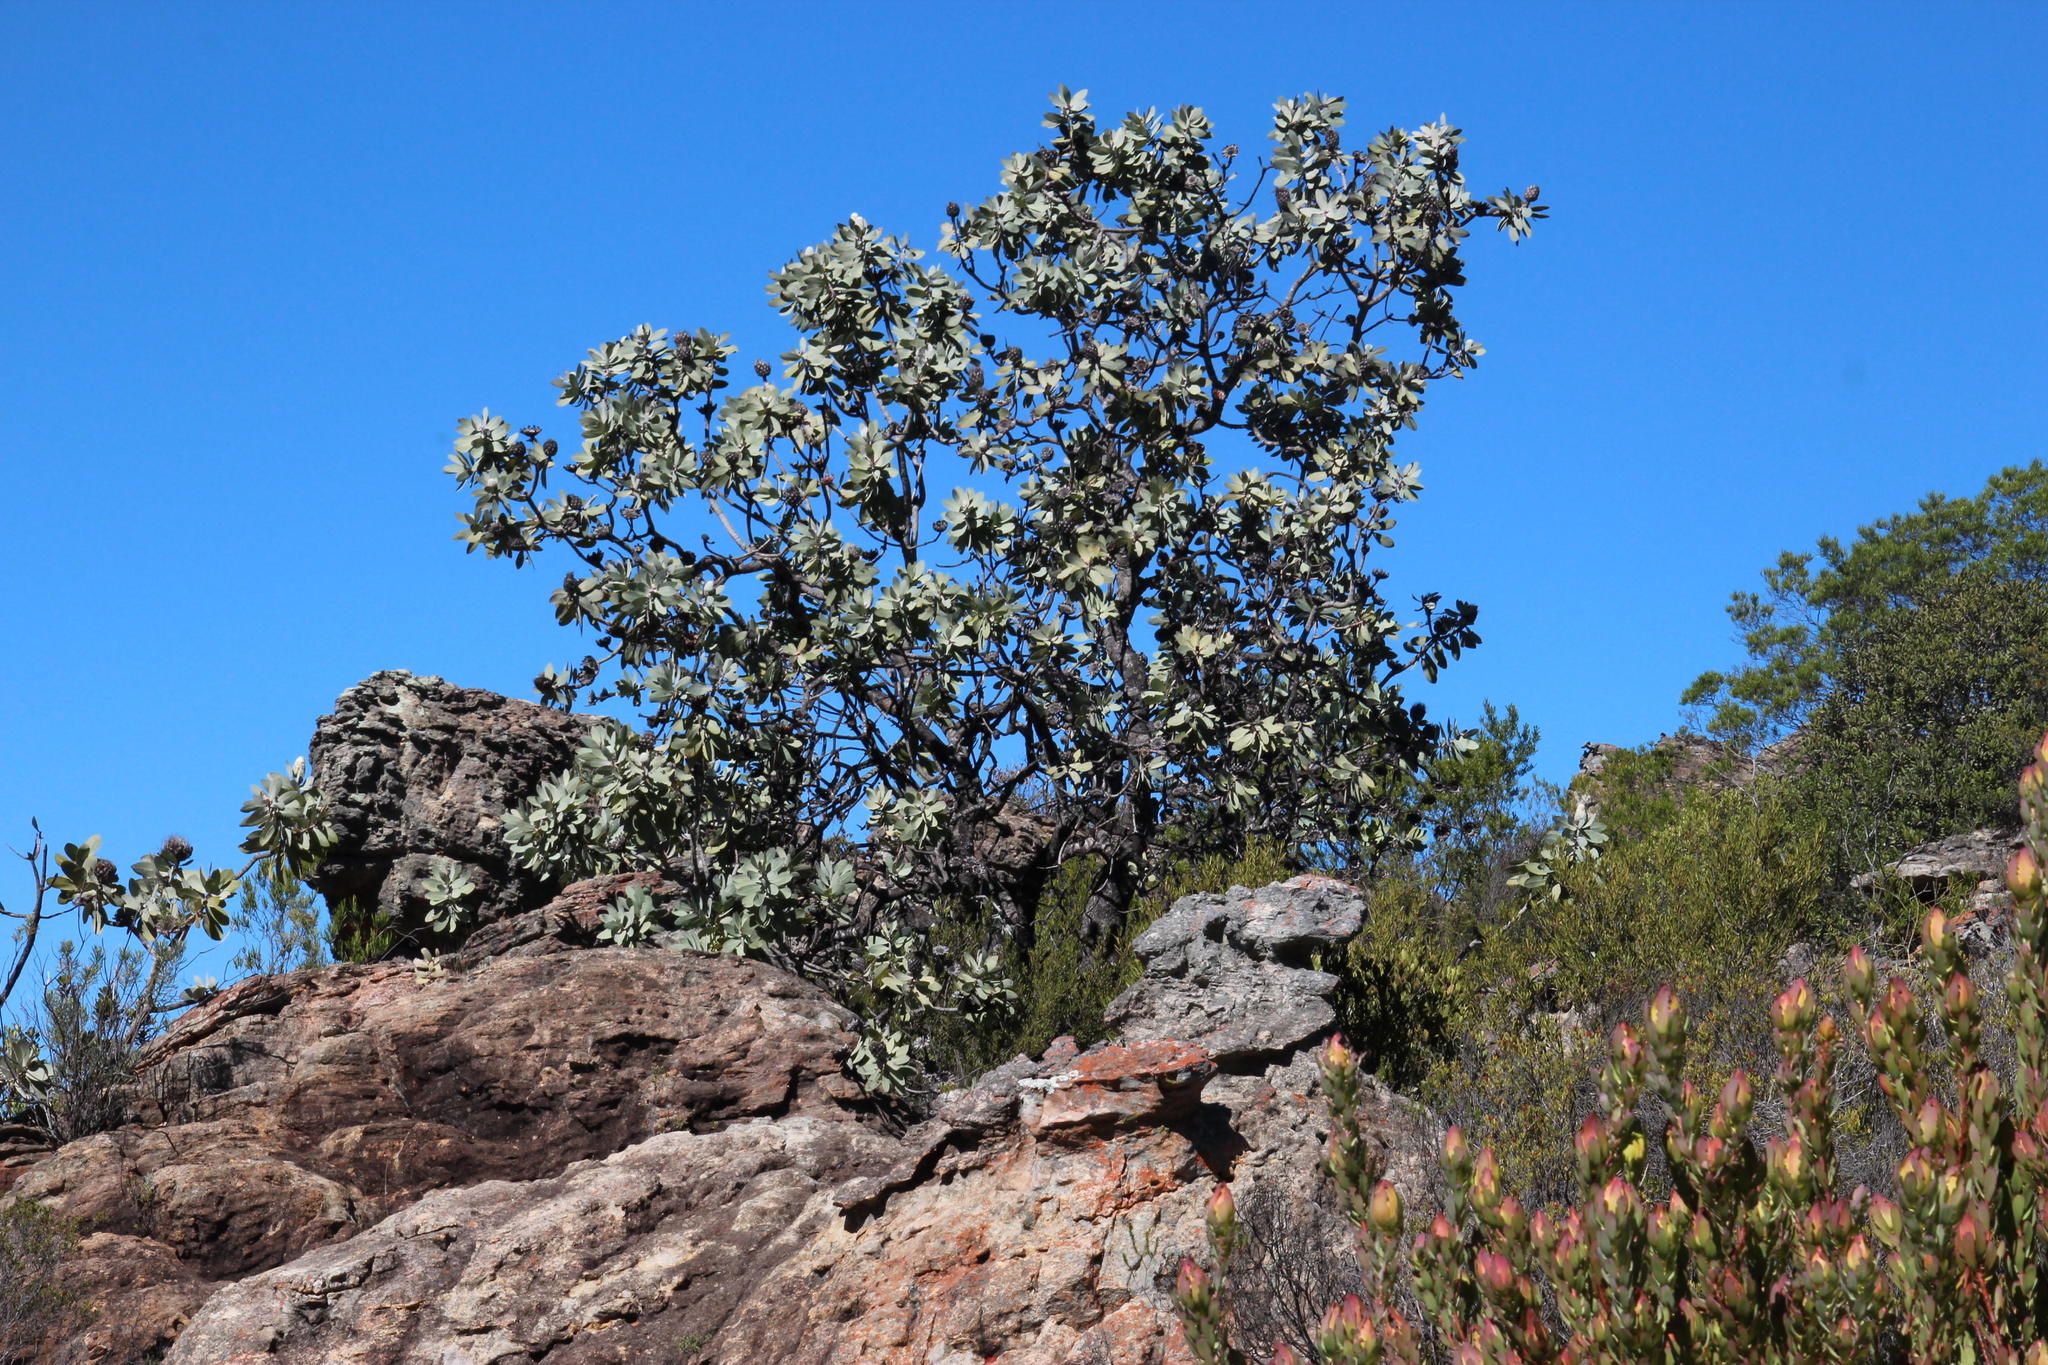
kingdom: Plantae
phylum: Tracheophyta
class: Magnoliopsida
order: Proteales
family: Proteaceae
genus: Protea
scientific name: Protea nitida
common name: Tree protea
